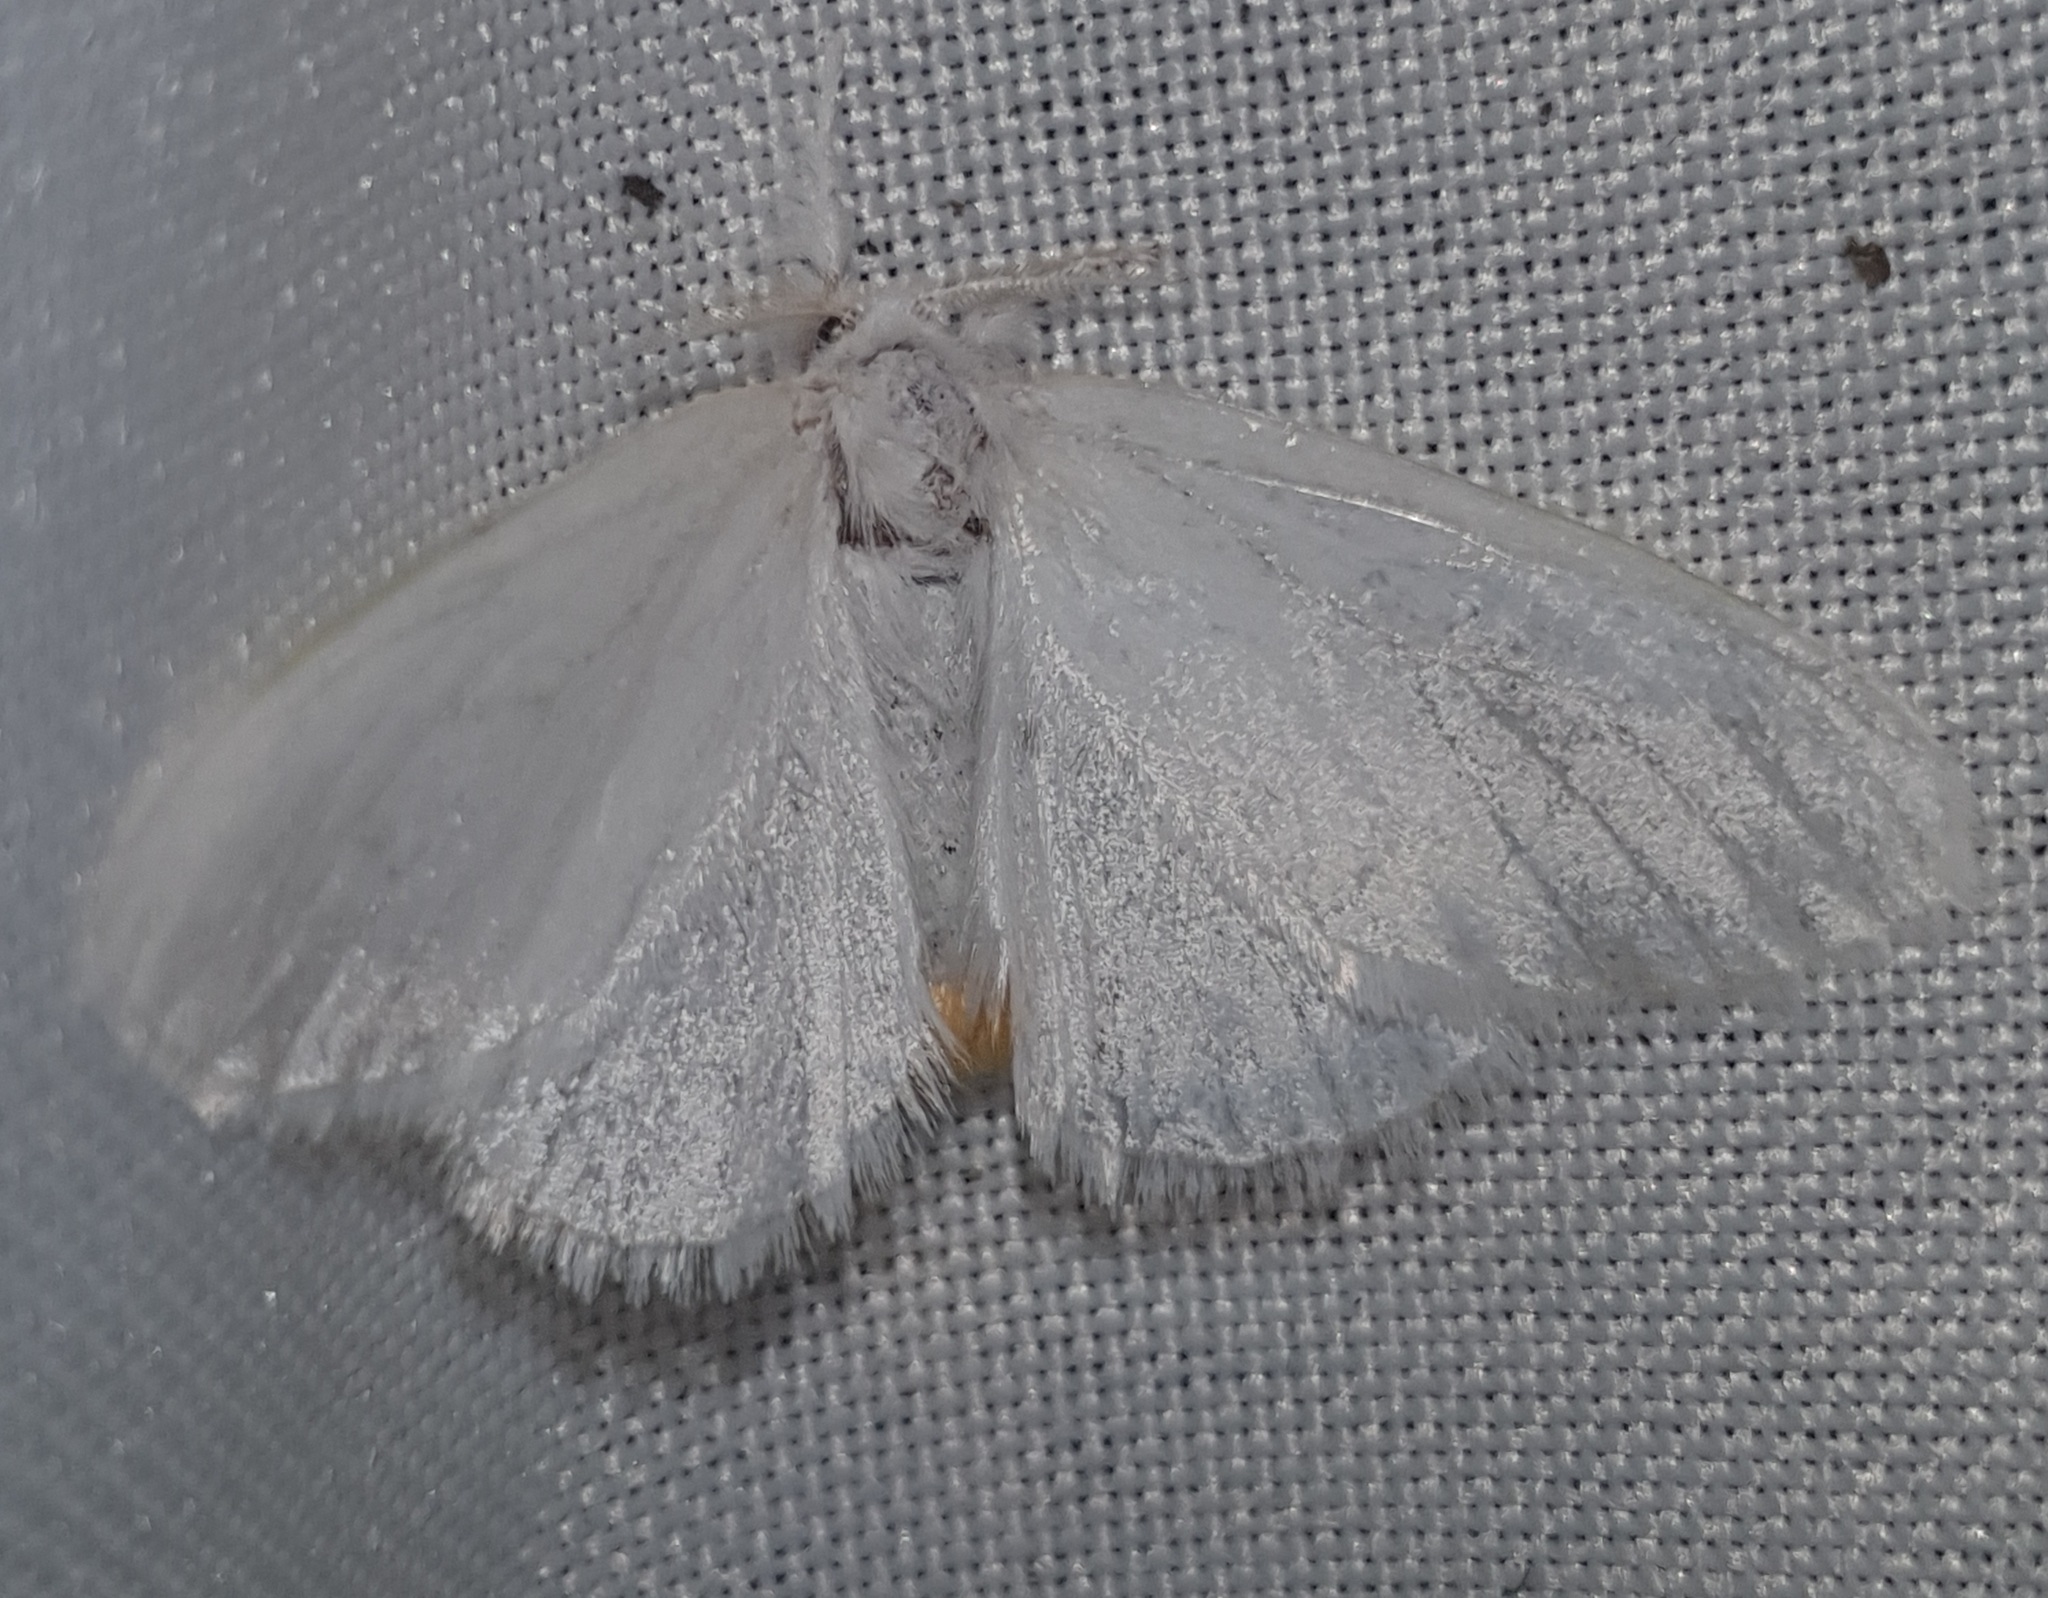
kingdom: Animalia
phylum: Arthropoda
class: Insecta
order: Lepidoptera
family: Erebidae
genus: Sphrageidus
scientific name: Sphrageidus similis
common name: Yellow-tail
